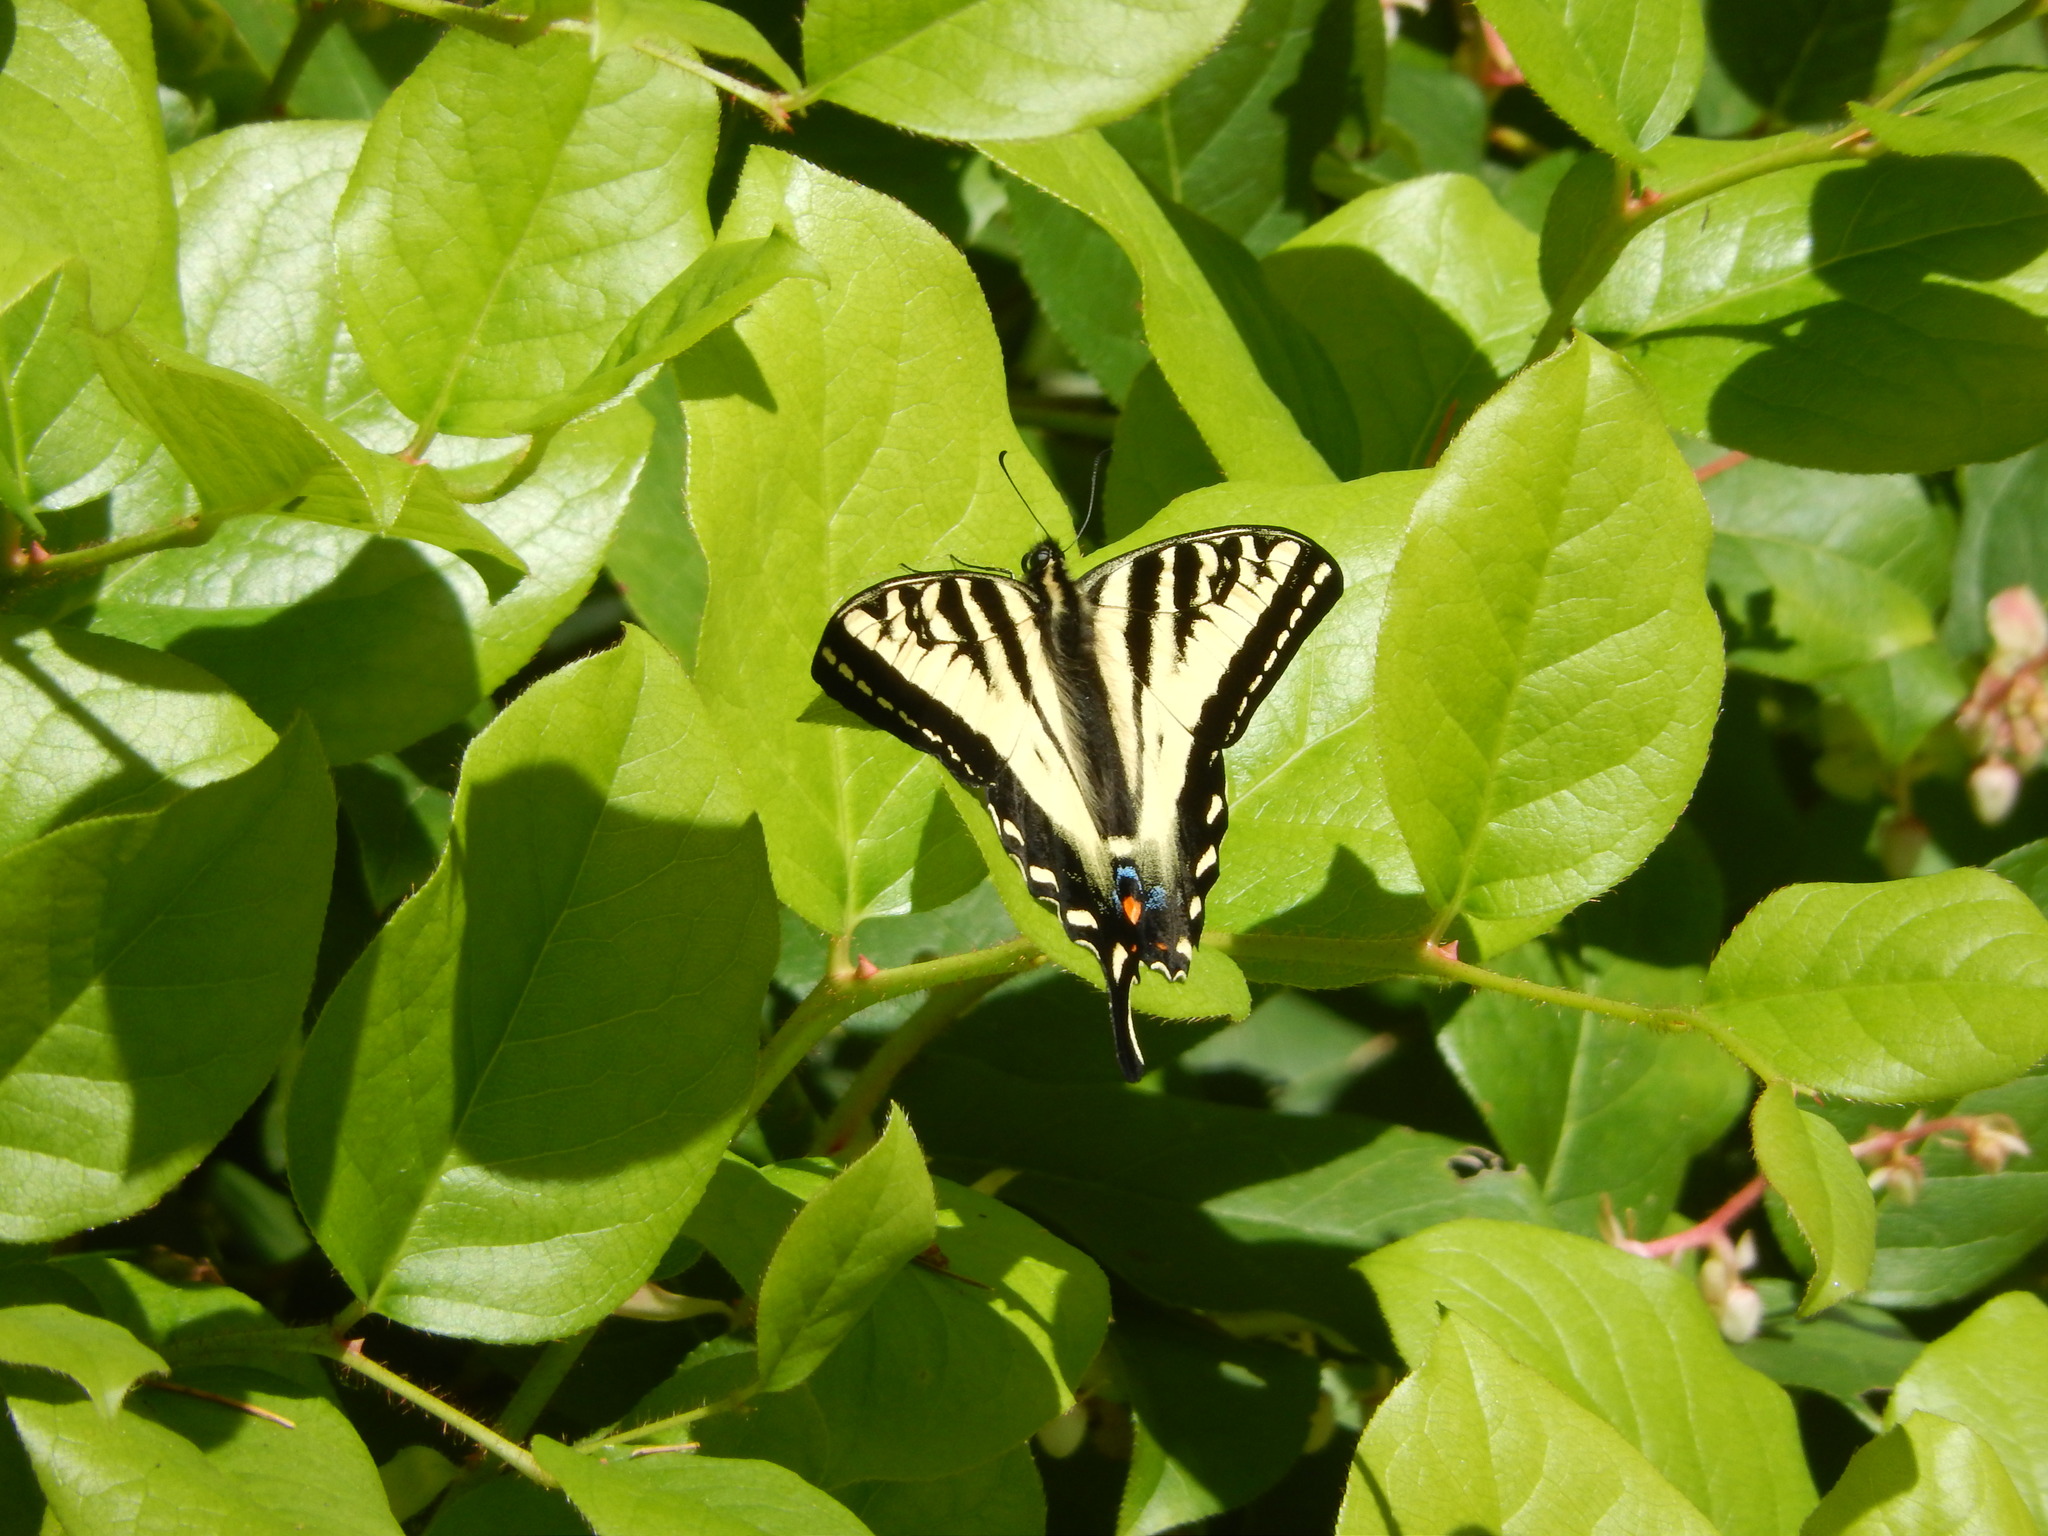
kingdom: Animalia
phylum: Arthropoda
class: Insecta
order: Lepidoptera
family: Papilionidae
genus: Papilio
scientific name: Papilio rutulus
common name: Western tiger swallowtail
